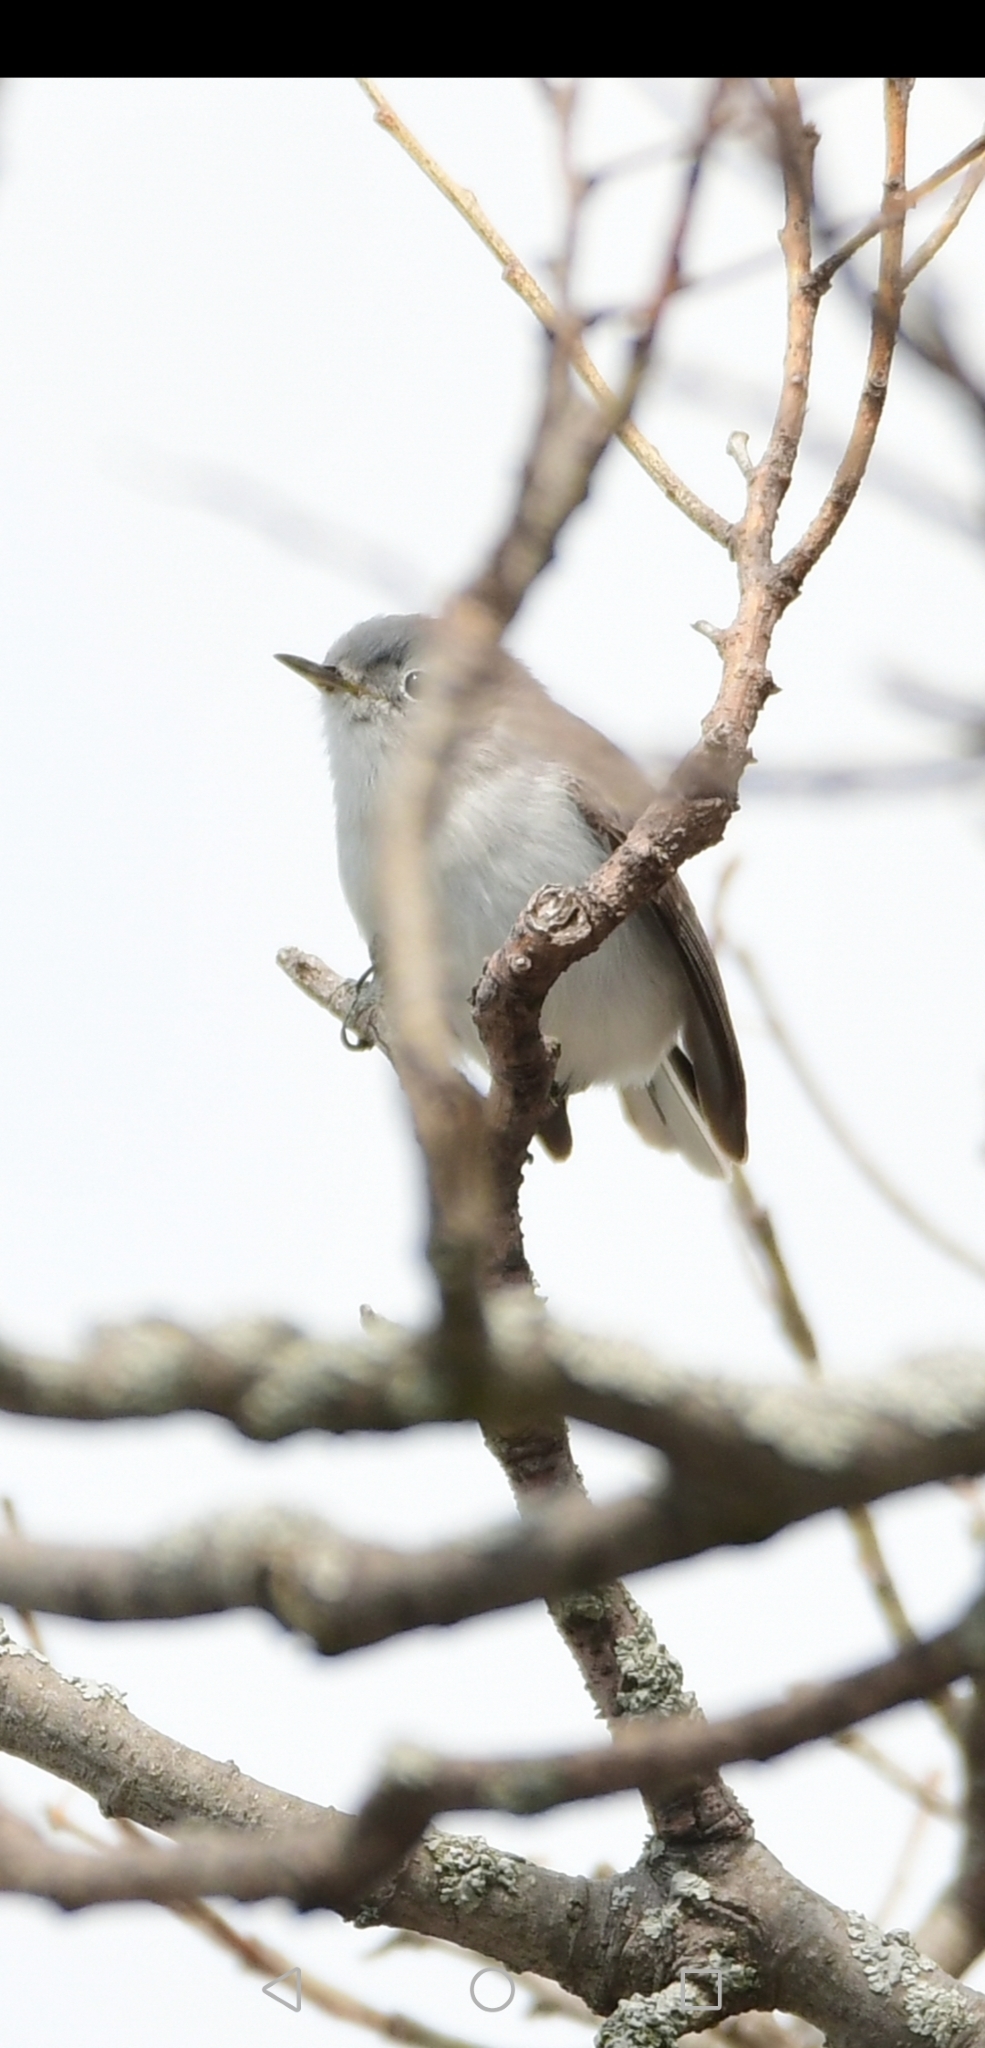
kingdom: Animalia
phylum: Chordata
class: Aves
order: Passeriformes
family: Polioptilidae
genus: Polioptila
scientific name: Polioptila caerulea
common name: Blue-gray gnatcatcher
